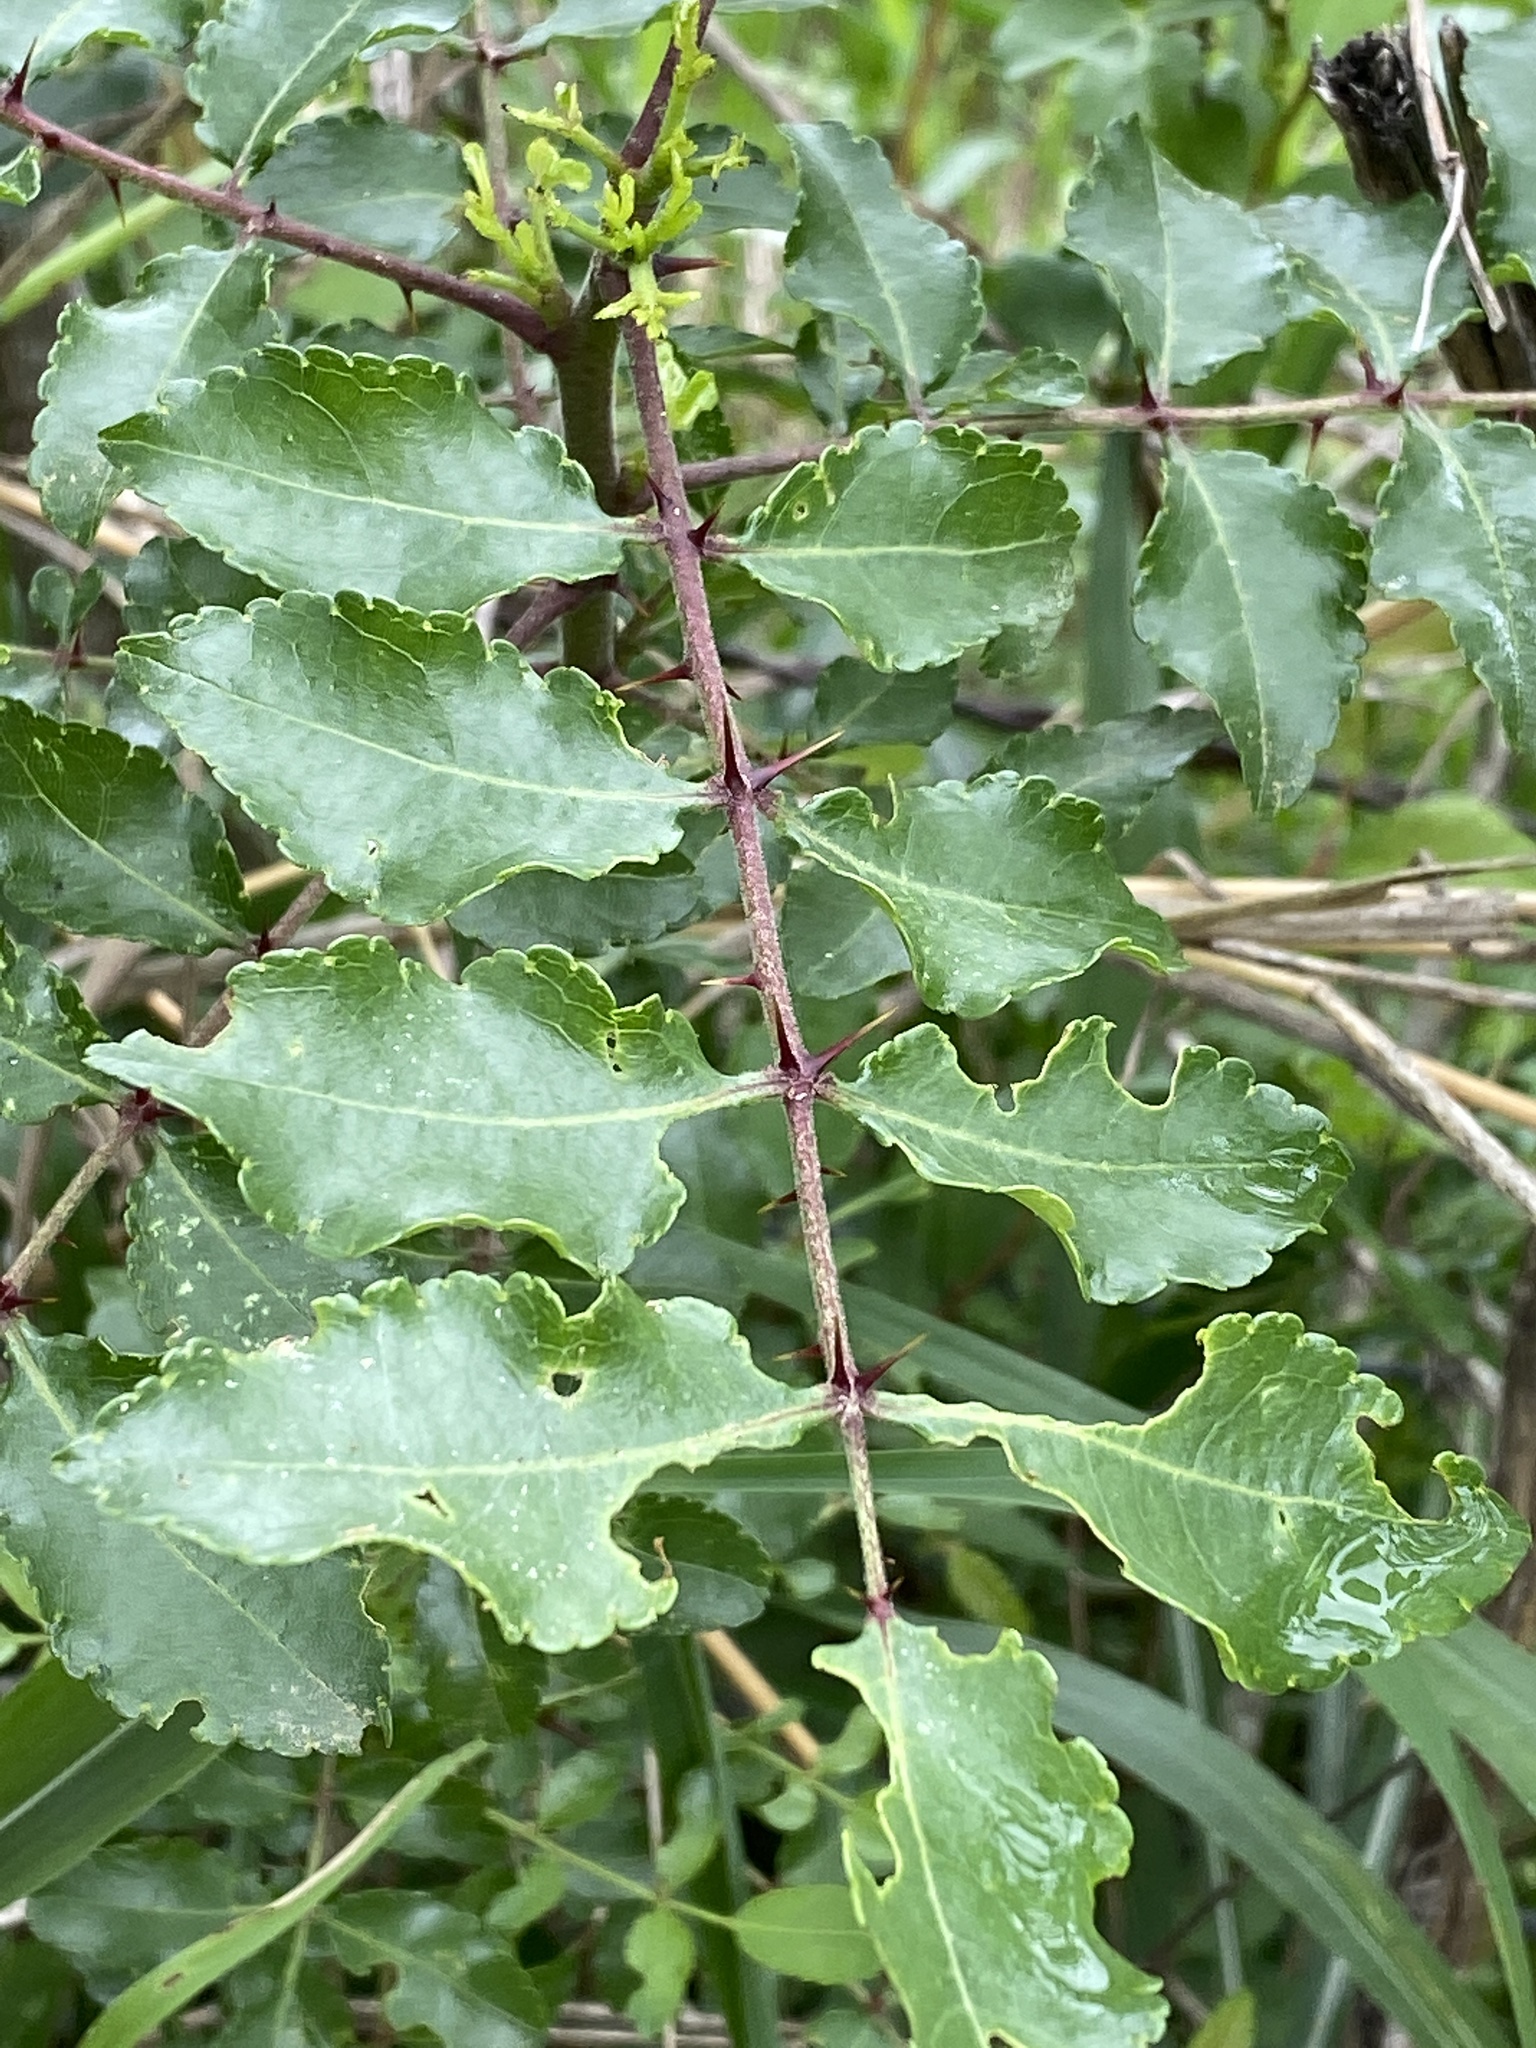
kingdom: Plantae
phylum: Tracheophyta
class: Magnoliopsida
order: Sapindales
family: Rutaceae
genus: Zanthoxylum
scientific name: Zanthoxylum clava-herculis
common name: Hercules'-club
